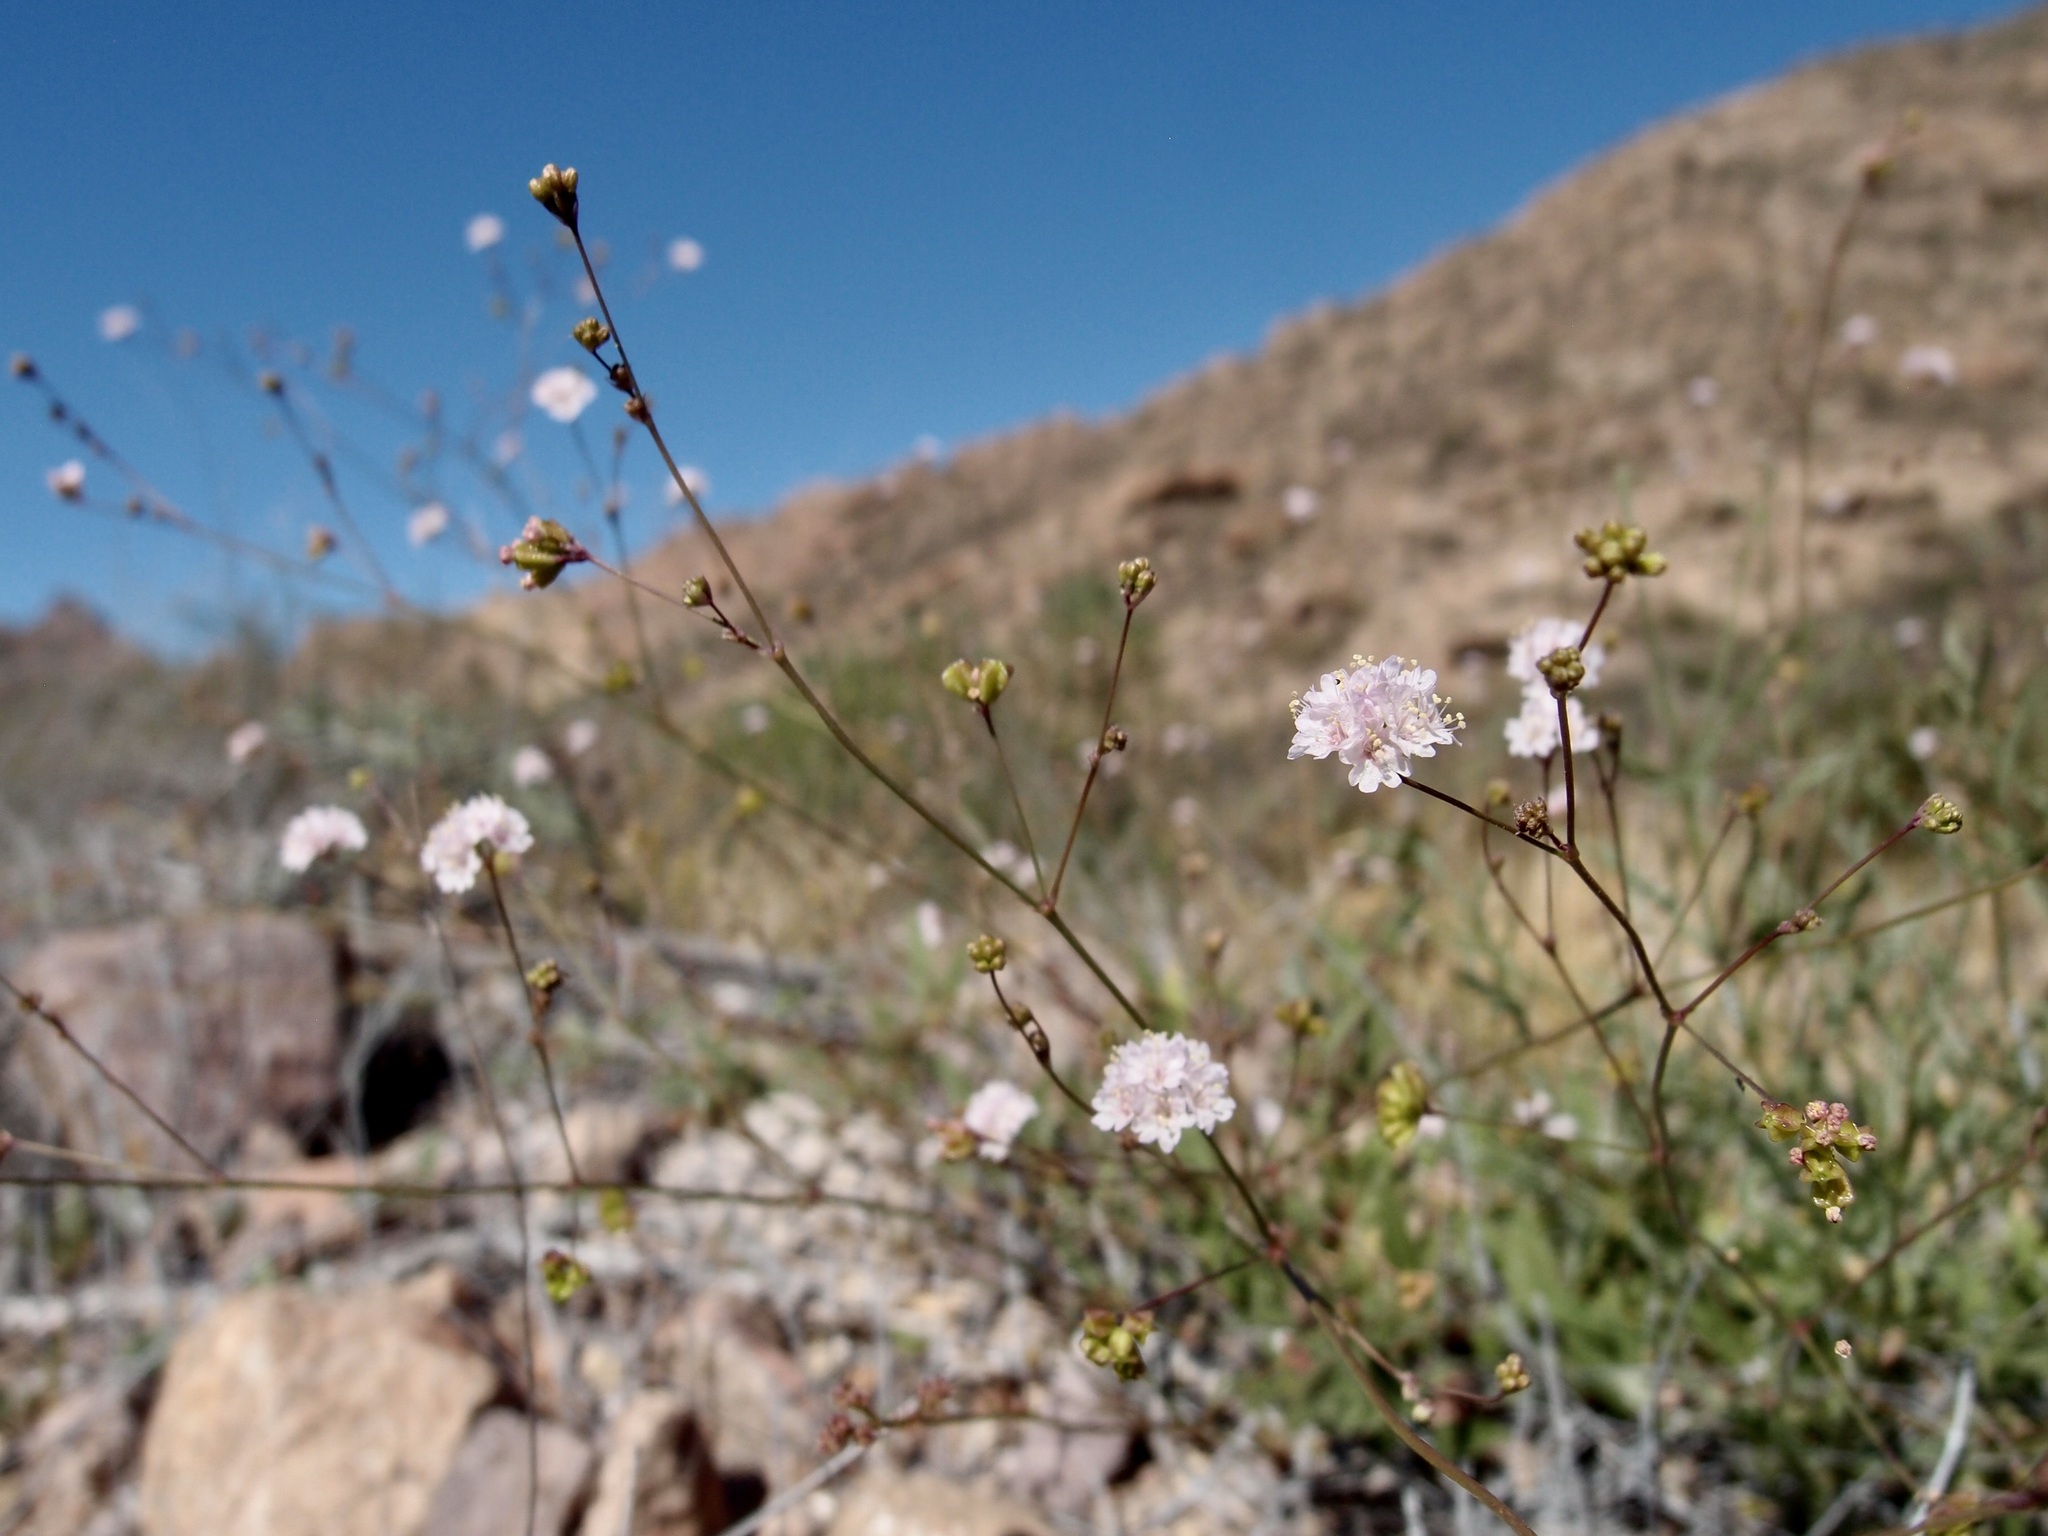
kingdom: Plantae
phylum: Tracheophyta
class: Magnoliopsida
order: Caryophyllales
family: Nyctaginaceae
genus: Boerhavia
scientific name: Boerhavia alata
